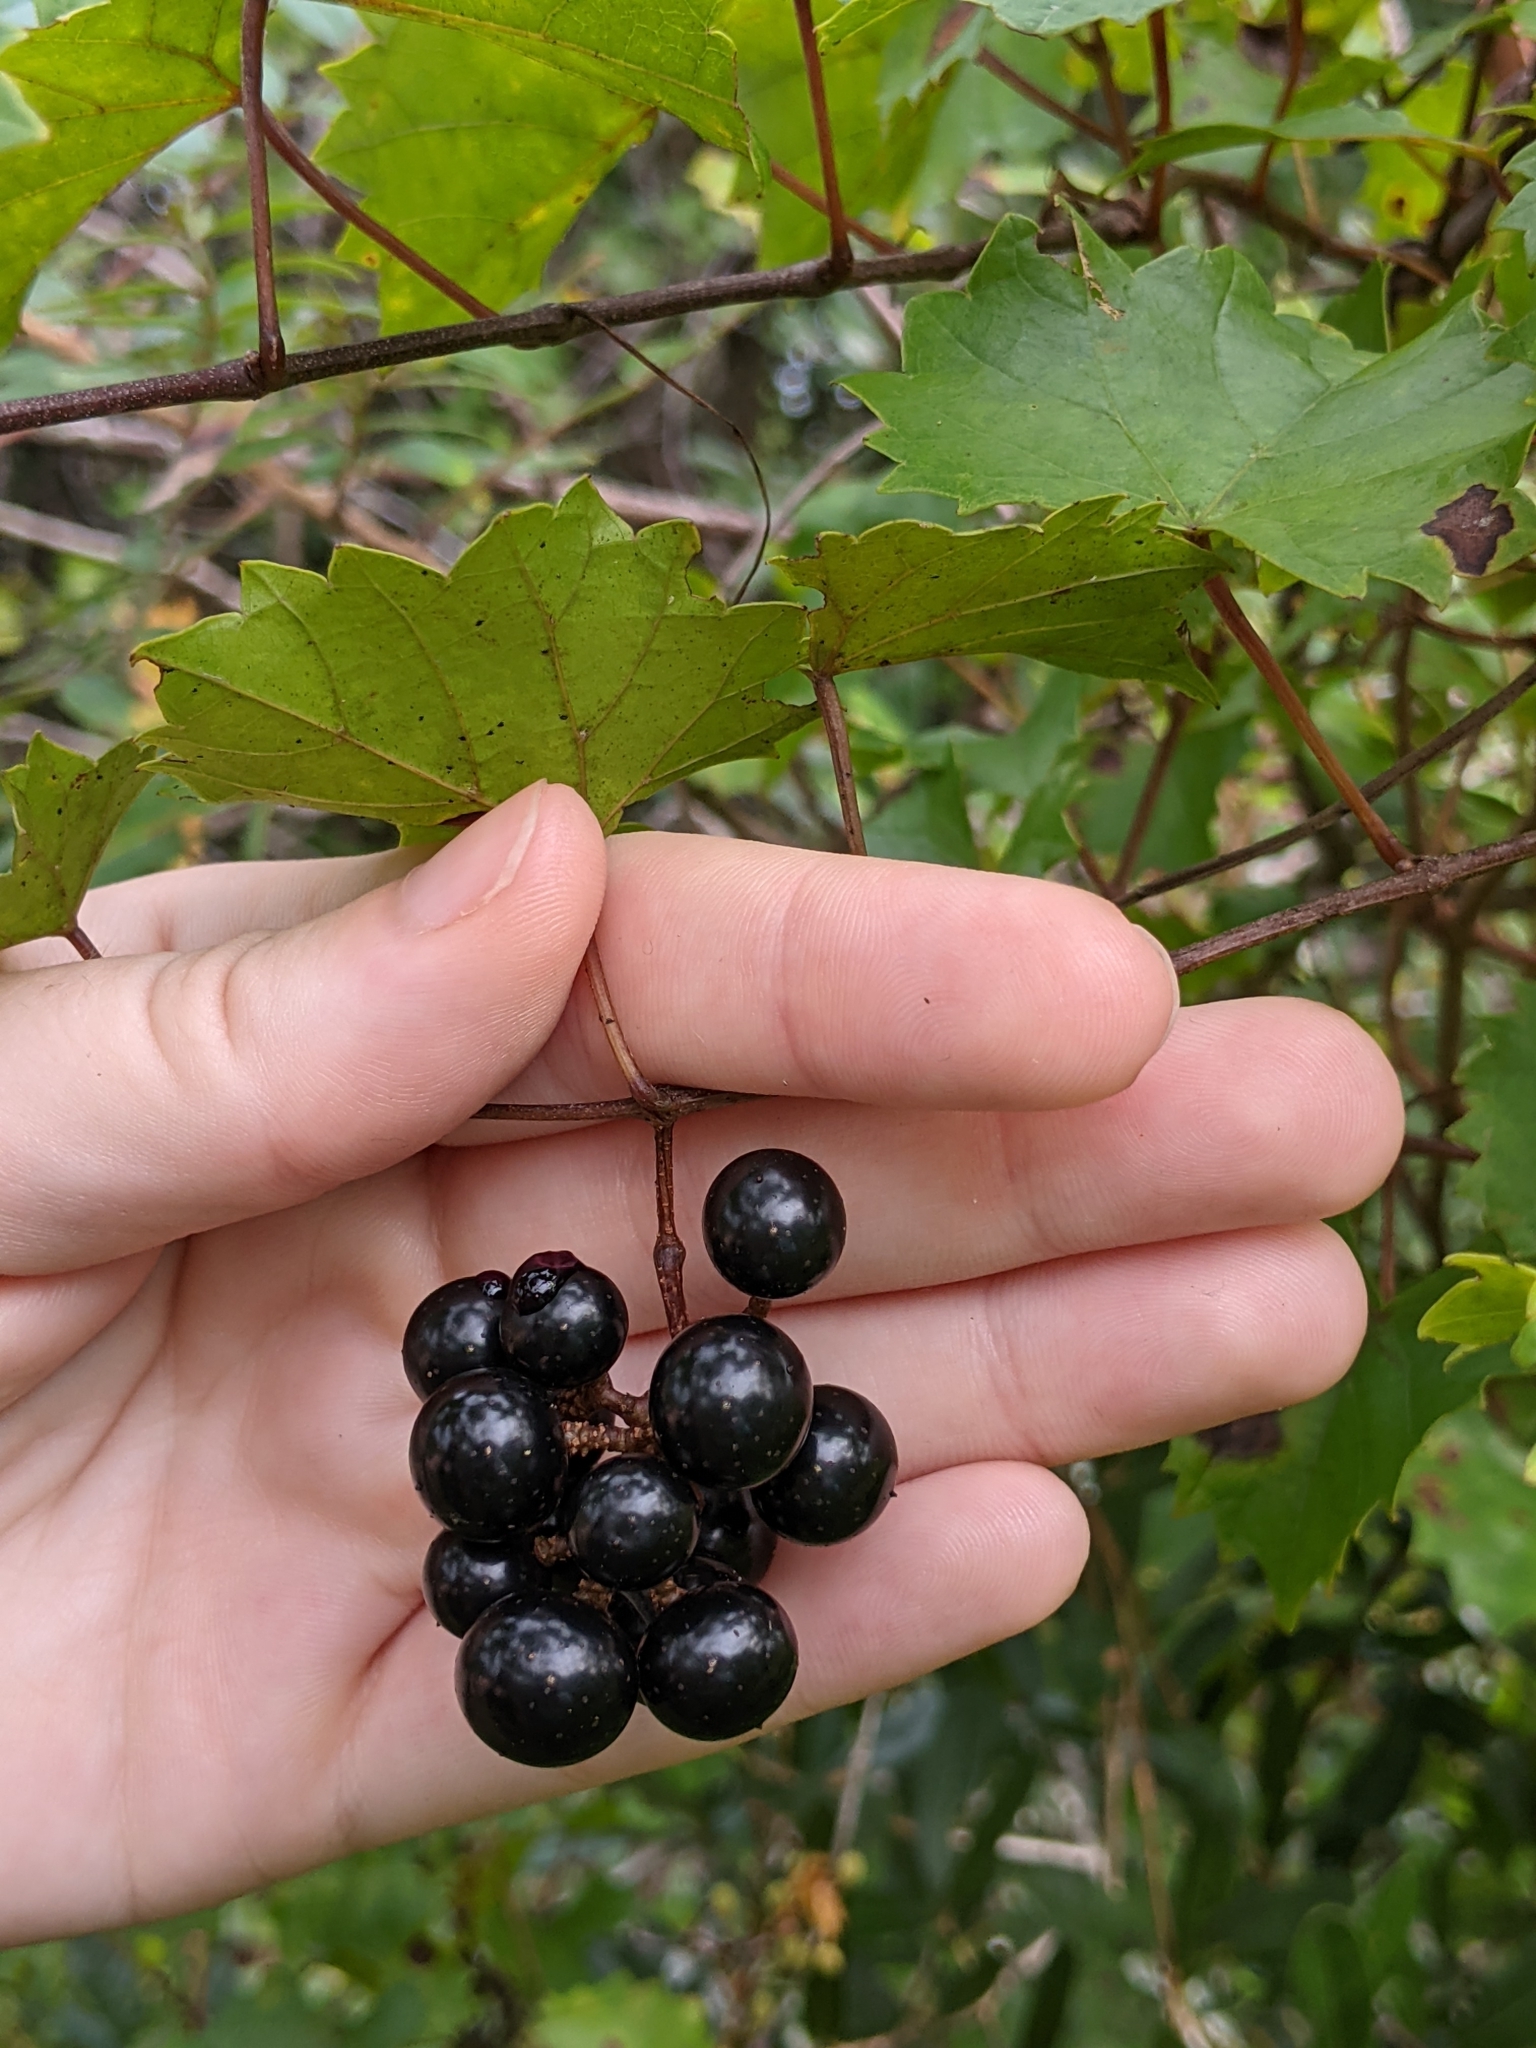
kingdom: Plantae
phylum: Tracheophyta
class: Magnoliopsida
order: Vitales
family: Vitaceae
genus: Vitis
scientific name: Vitis rotundifolia
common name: Muscadine grape
